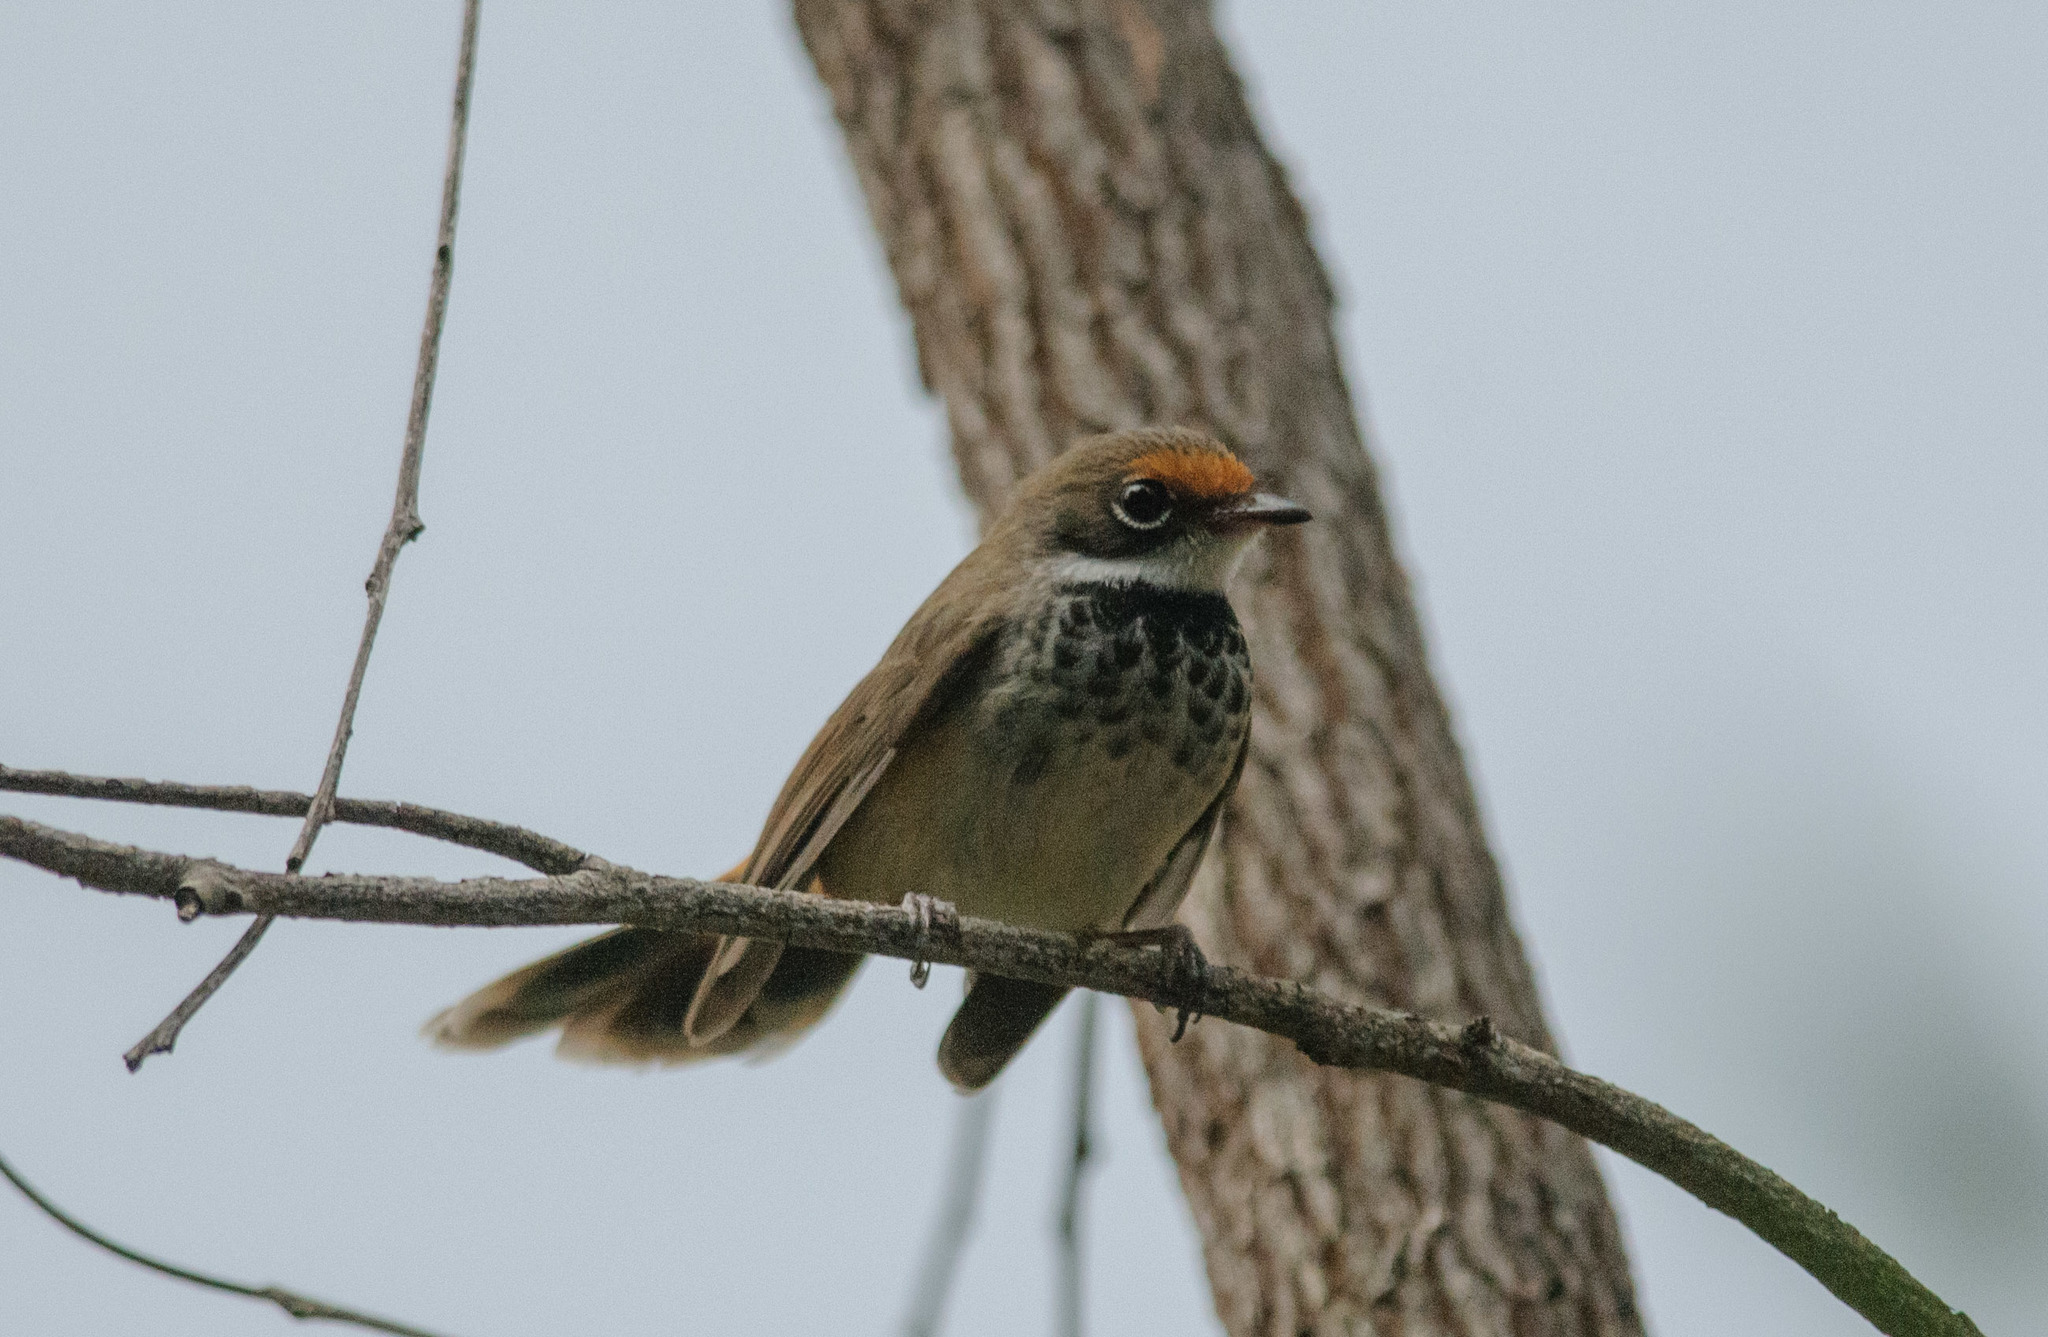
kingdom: Animalia
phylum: Chordata
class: Aves
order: Passeriformes
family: Rhipiduridae
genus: Rhipidura
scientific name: Rhipidura rufifrons
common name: Rufous fantail
